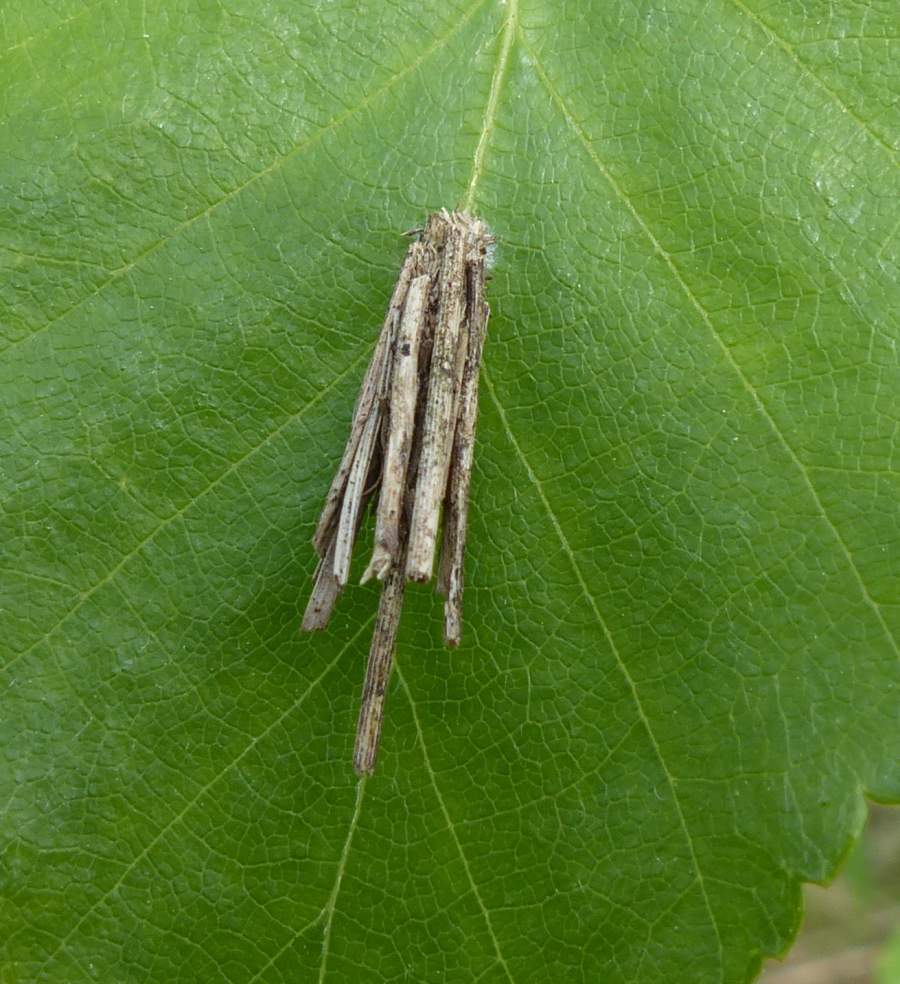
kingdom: Animalia
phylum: Arthropoda
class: Insecta
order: Lepidoptera
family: Psychidae
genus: Psyche
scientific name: Psyche casta
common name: Common sweep
